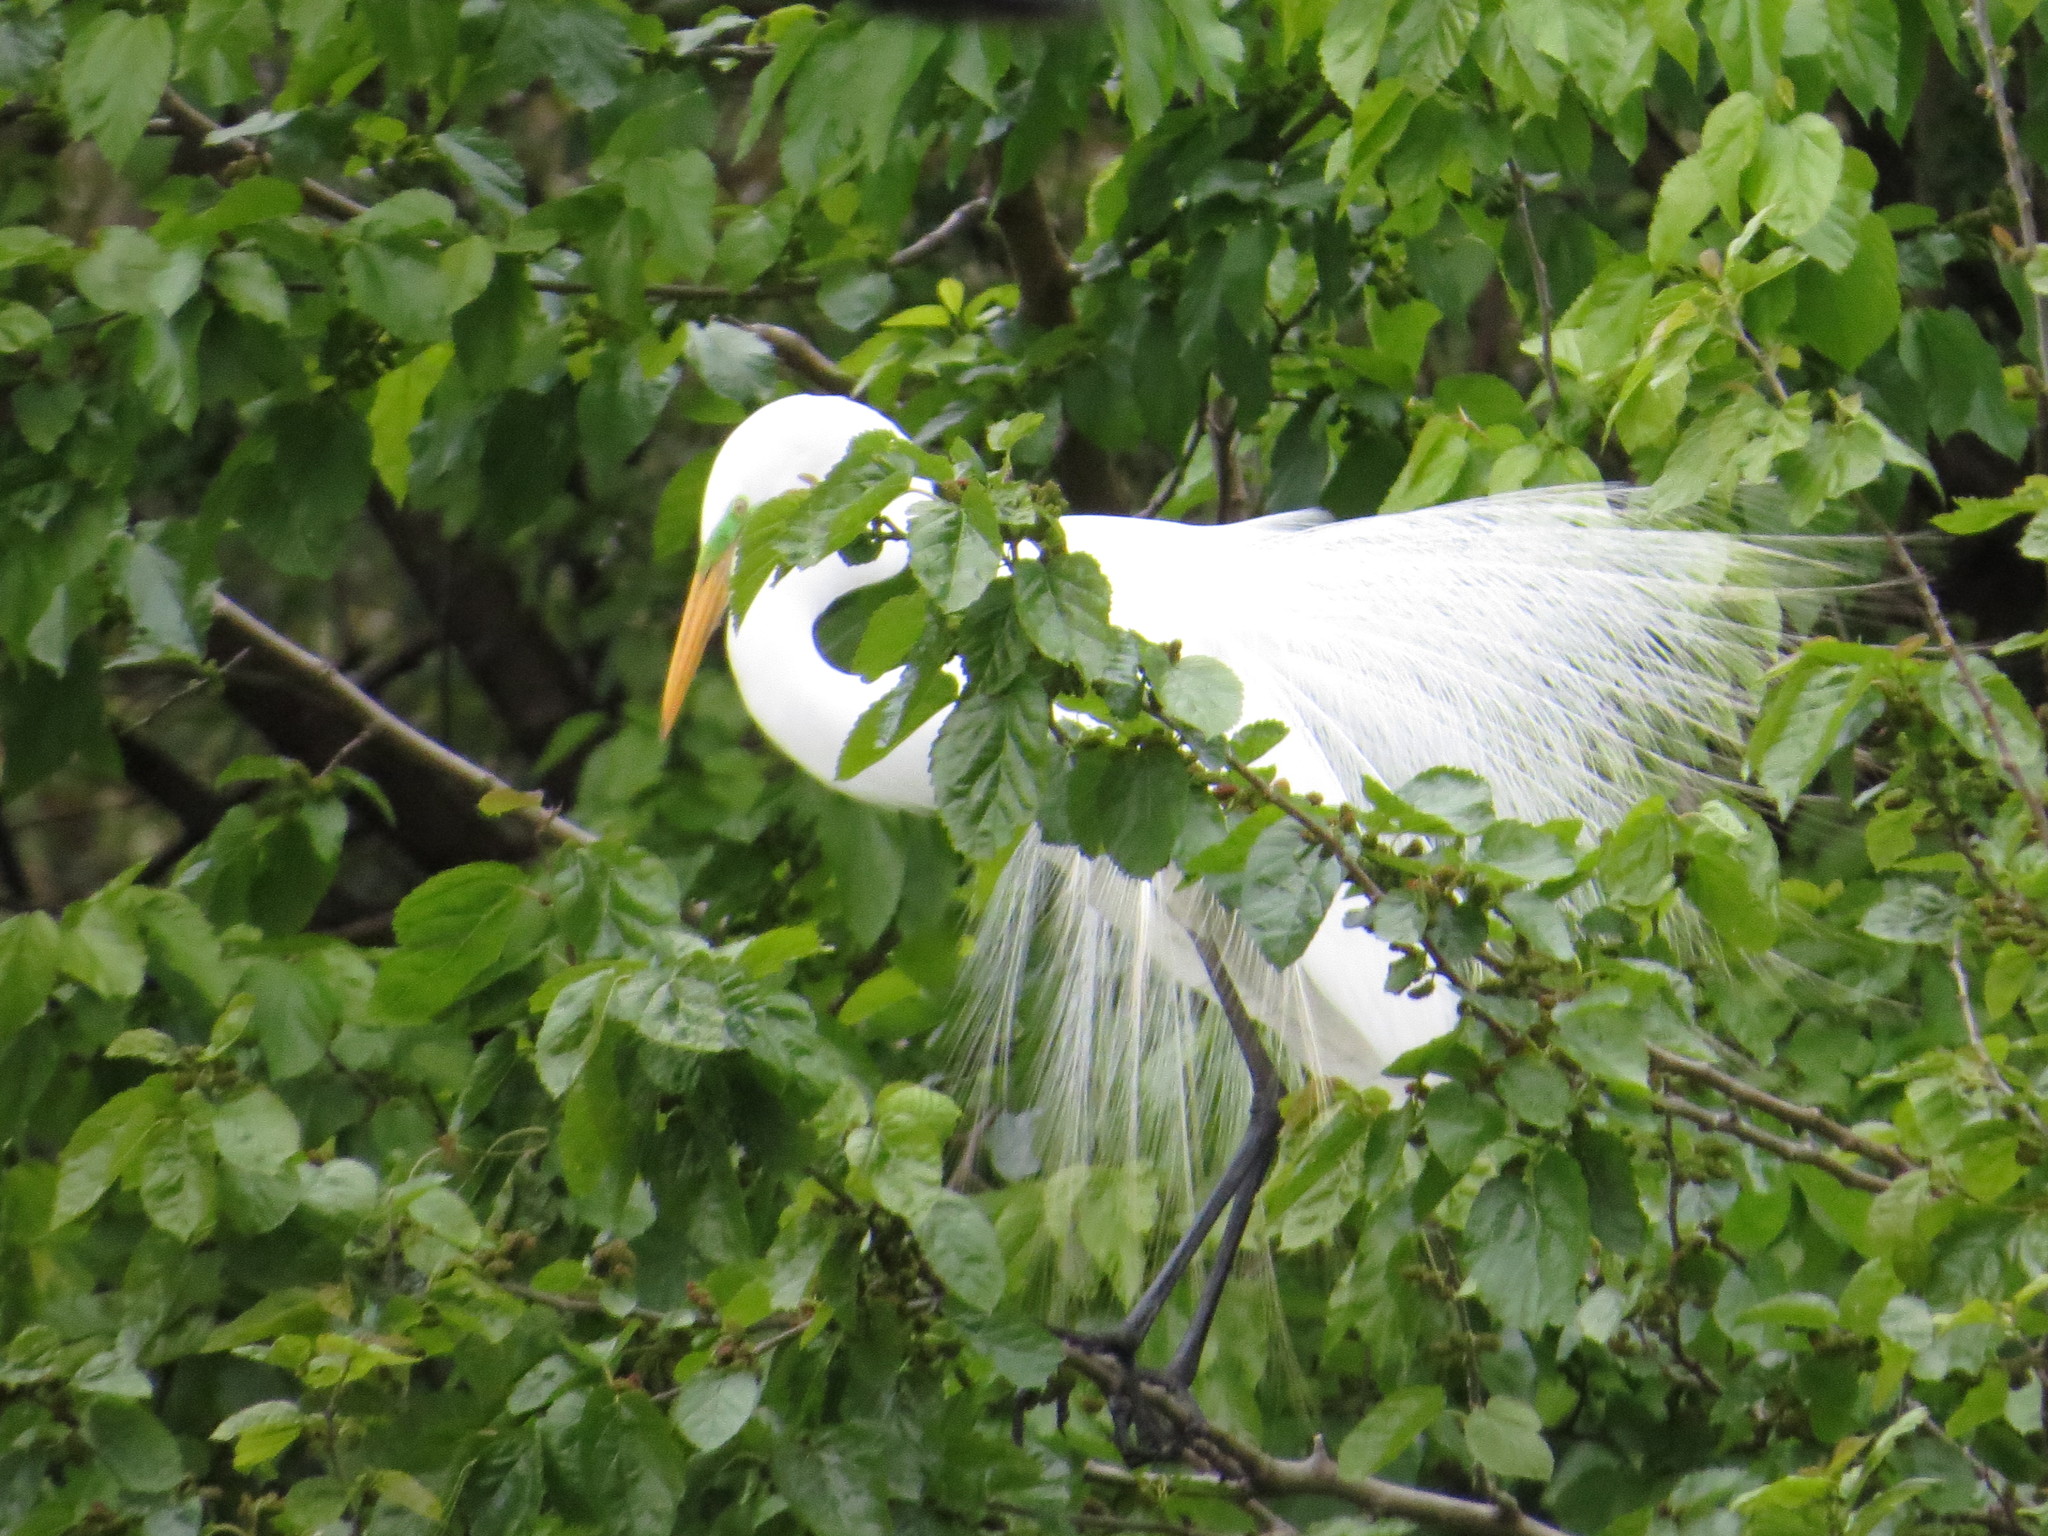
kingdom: Animalia
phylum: Chordata
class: Aves
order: Pelecaniformes
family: Ardeidae
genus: Ardea
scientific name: Ardea alba
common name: Great egret
